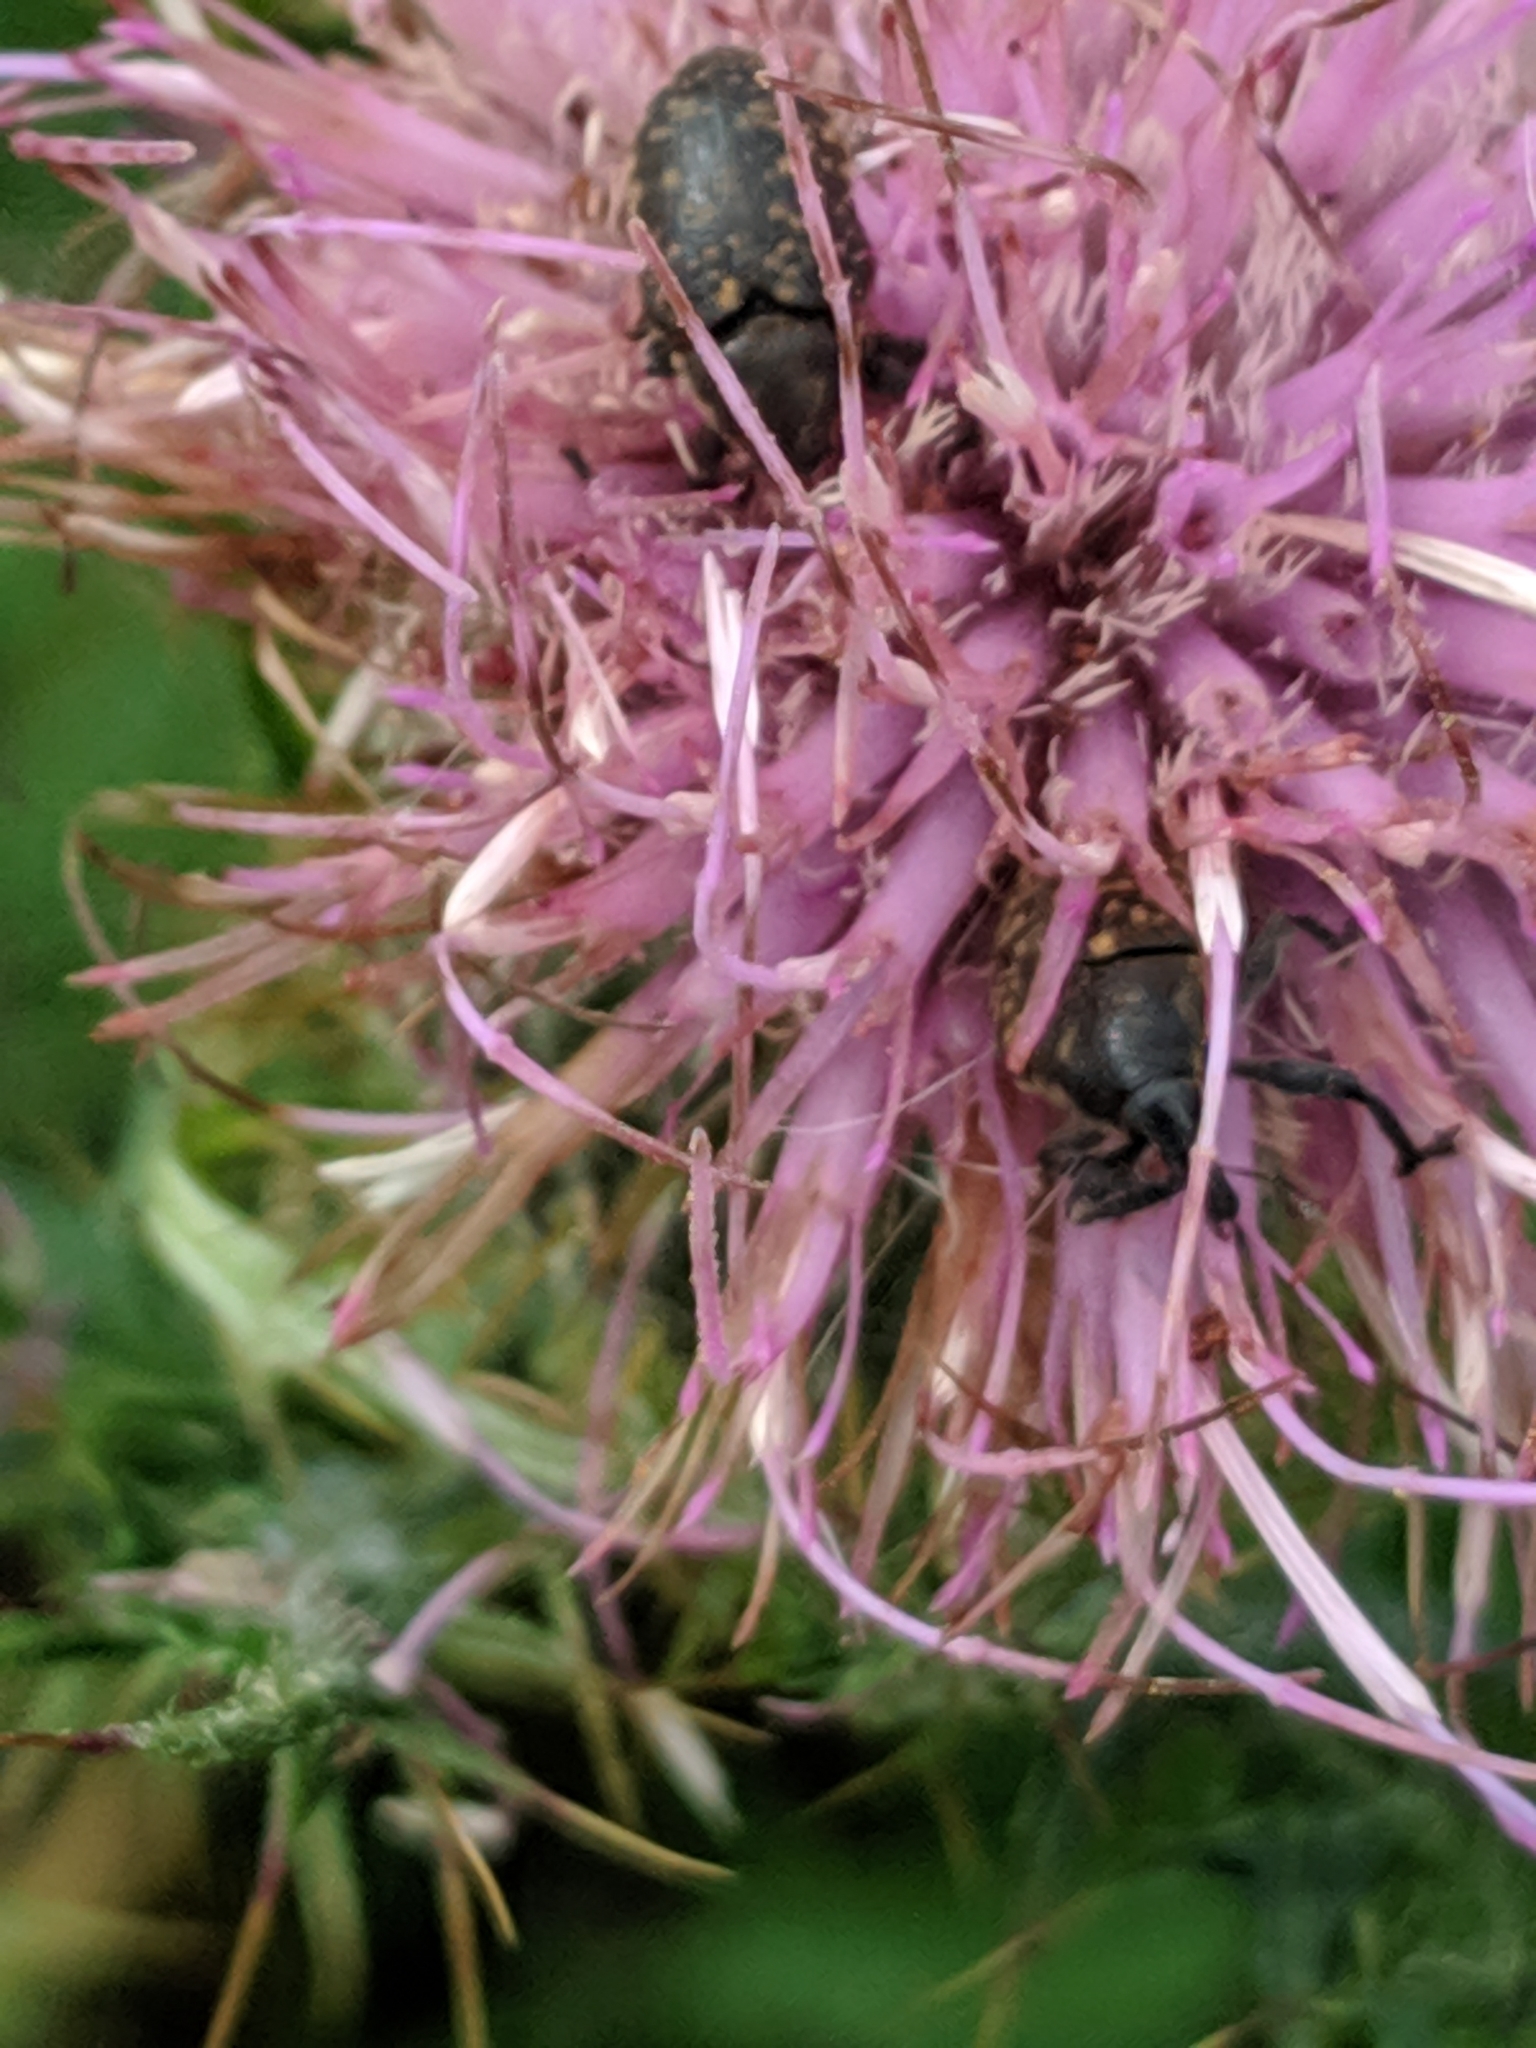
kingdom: Animalia
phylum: Arthropoda
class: Insecta
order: Coleoptera
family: Curculionidae
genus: Larinus
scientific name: Larinus turbinatus
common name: Weevil
